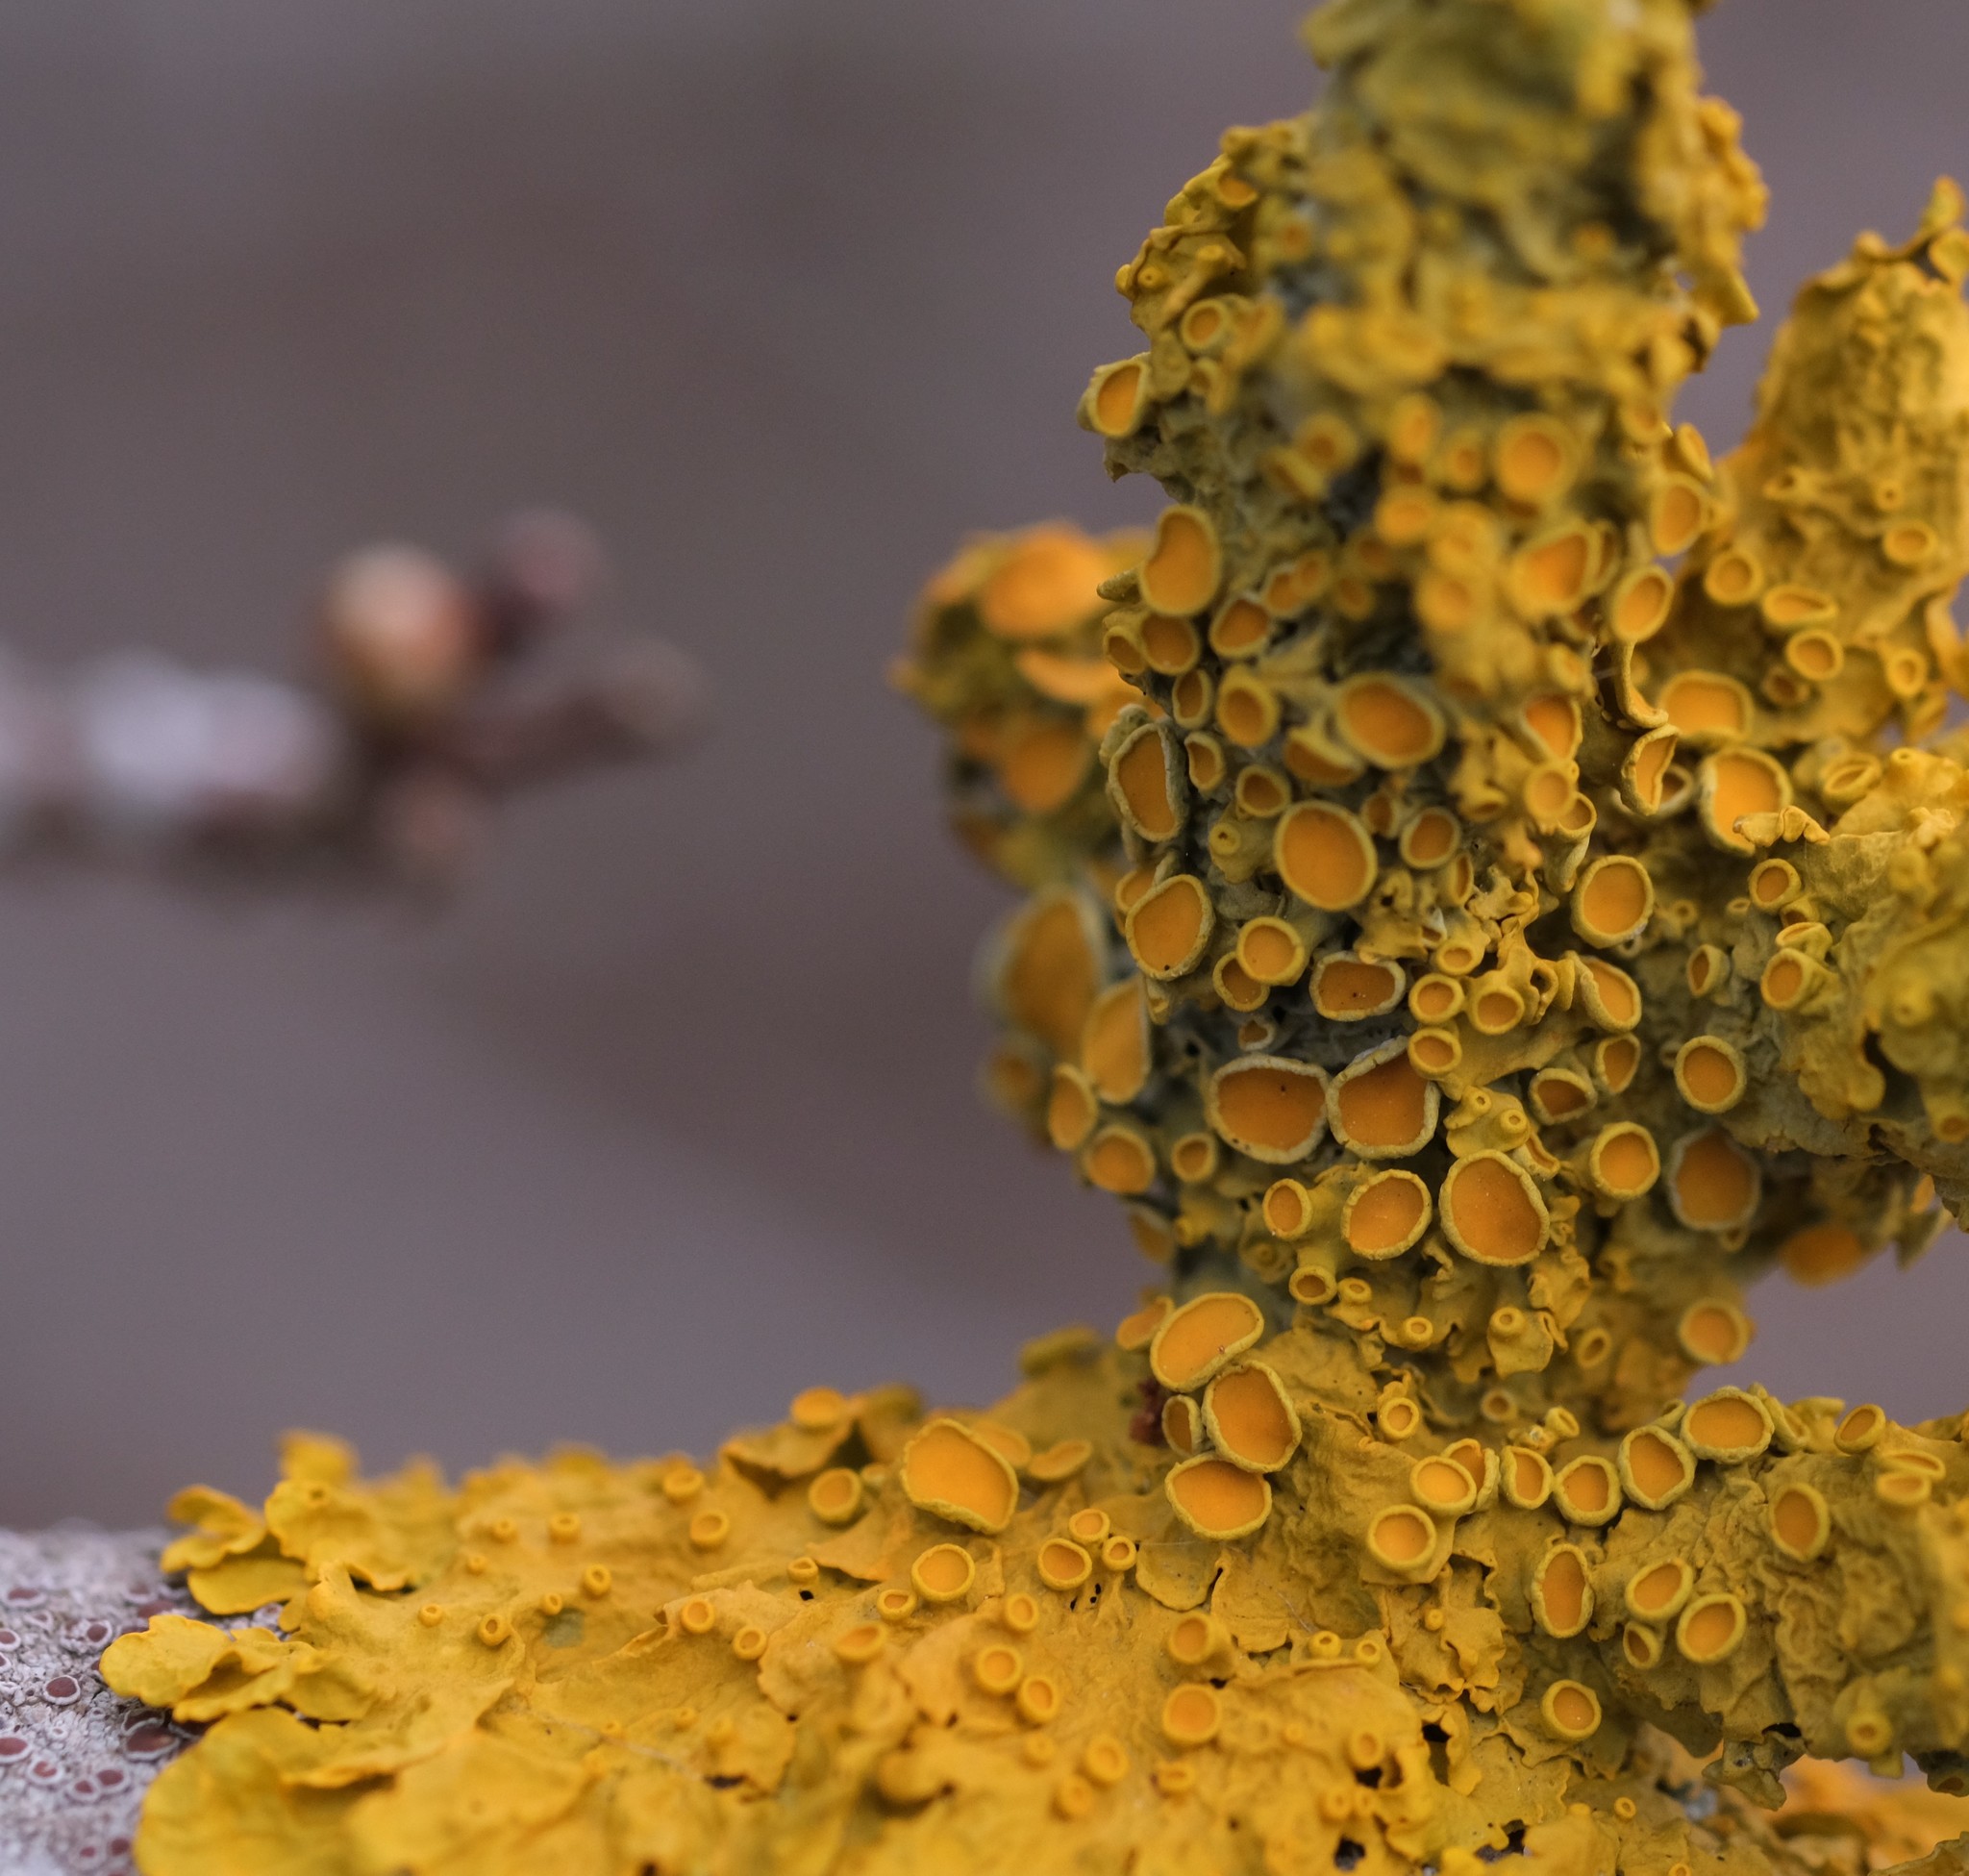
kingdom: Fungi
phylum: Ascomycota
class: Lecanoromycetes
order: Teloschistales
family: Teloschistaceae
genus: Xanthoria
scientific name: Xanthoria parietina
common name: Common orange lichen
